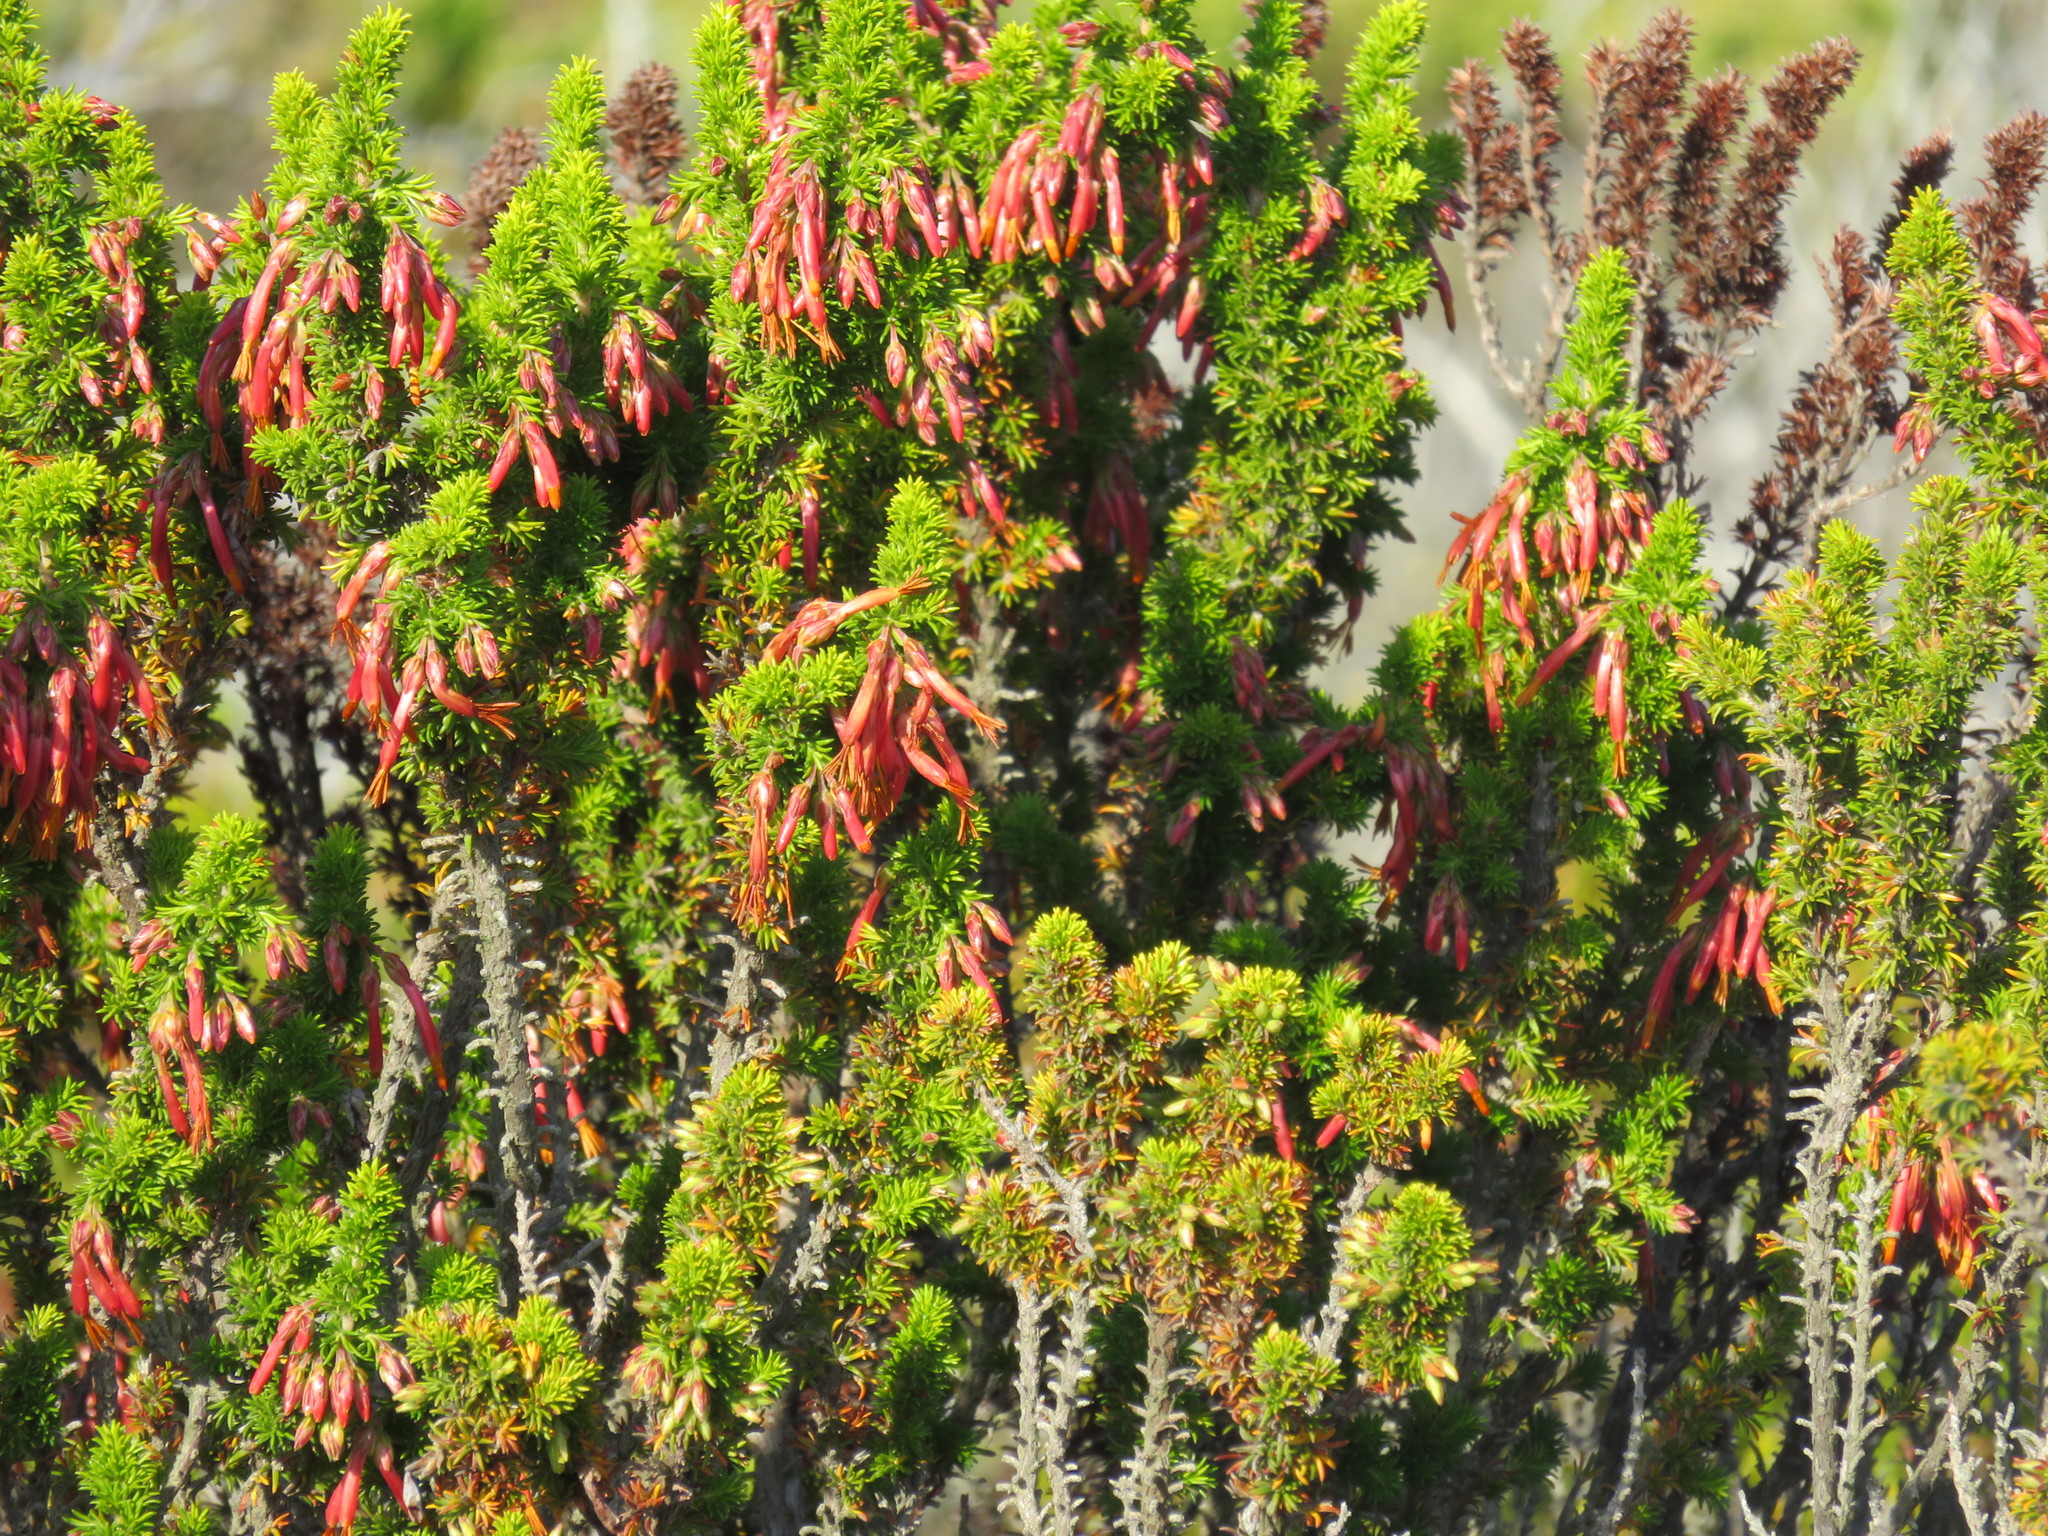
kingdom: Plantae
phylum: Tracheophyta
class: Magnoliopsida
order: Ericales
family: Ericaceae
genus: Erica
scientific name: Erica coccinea
